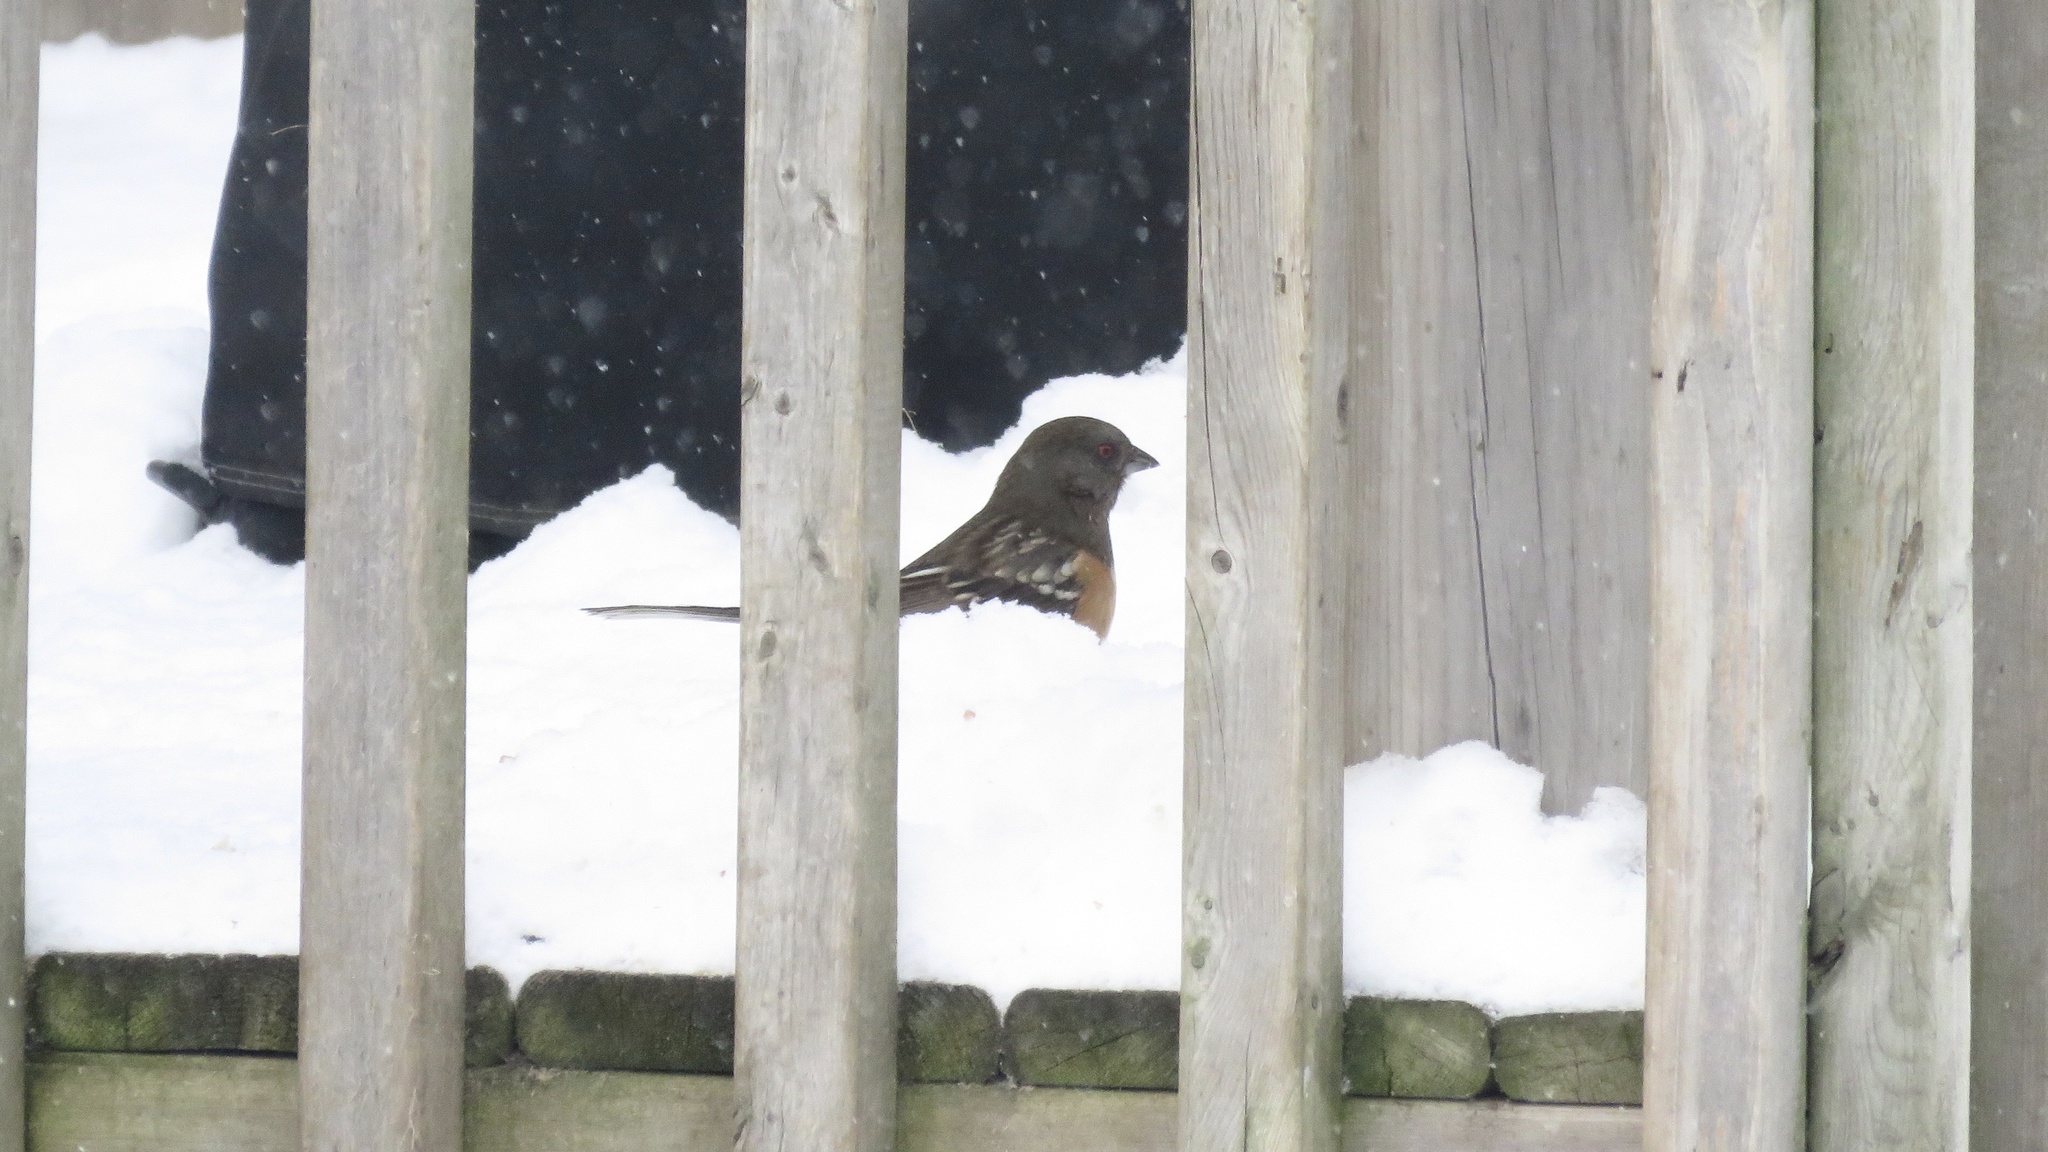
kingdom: Animalia
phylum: Chordata
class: Aves
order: Passeriformes
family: Passerellidae
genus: Pipilo
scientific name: Pipilo maculatus
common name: Spotted towhee
